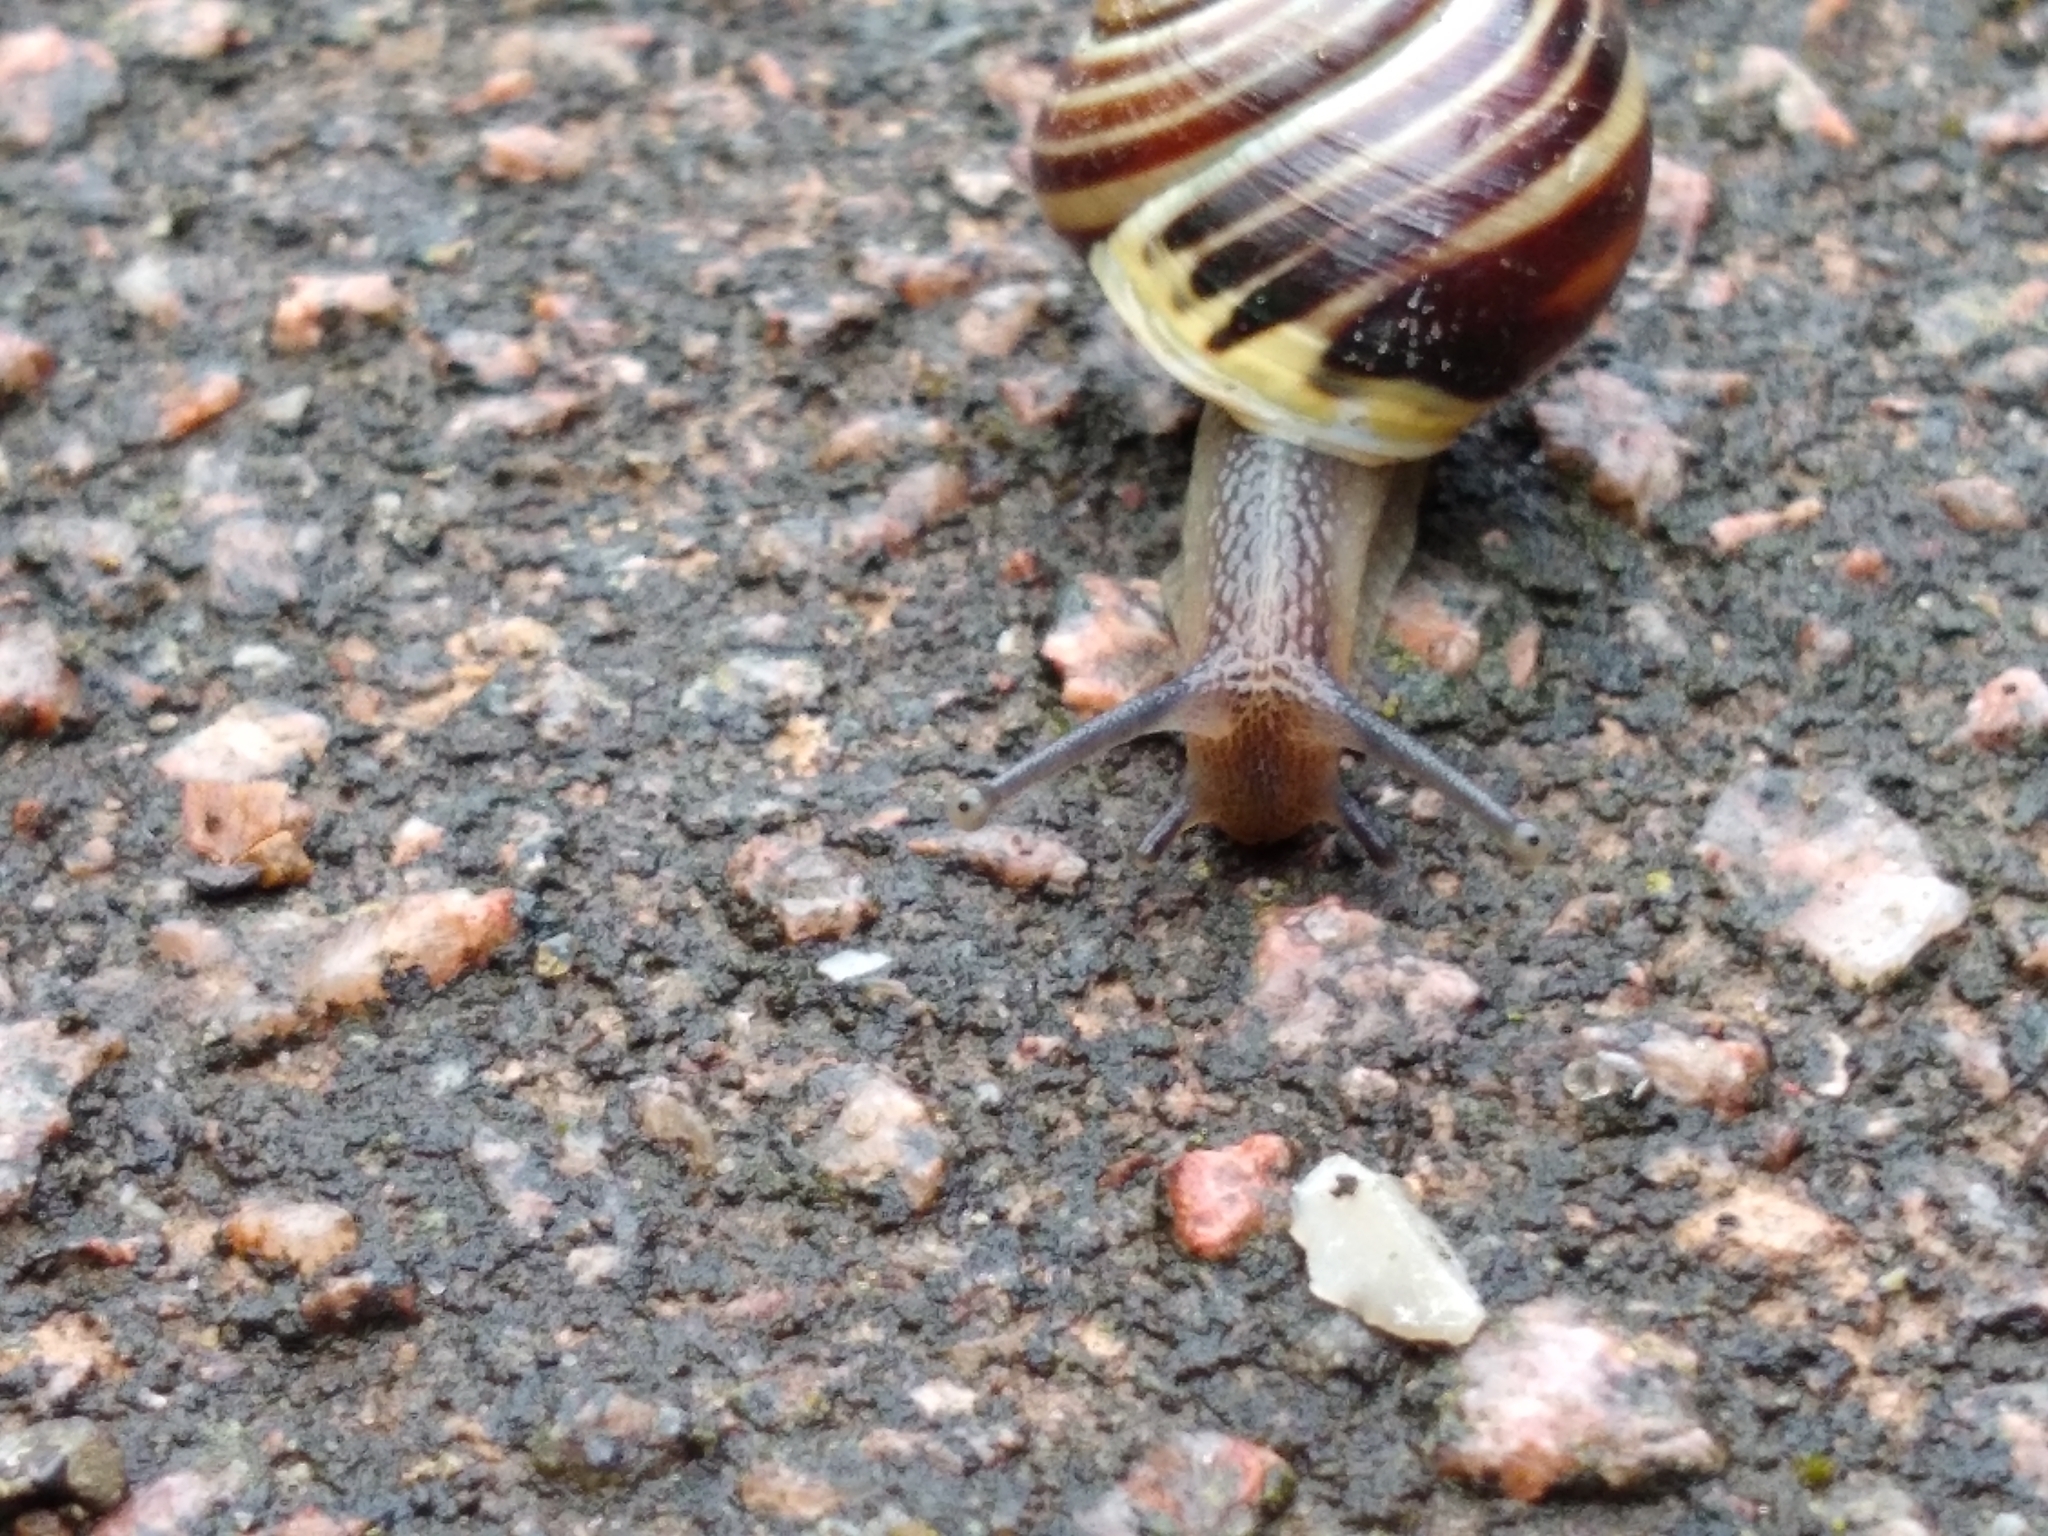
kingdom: Animalia
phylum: Mollusca
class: Gastropoda
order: Stylommatophora
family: Helicidae
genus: Cepaea
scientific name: Cepaea hortensis
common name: White-lip gardensnail
